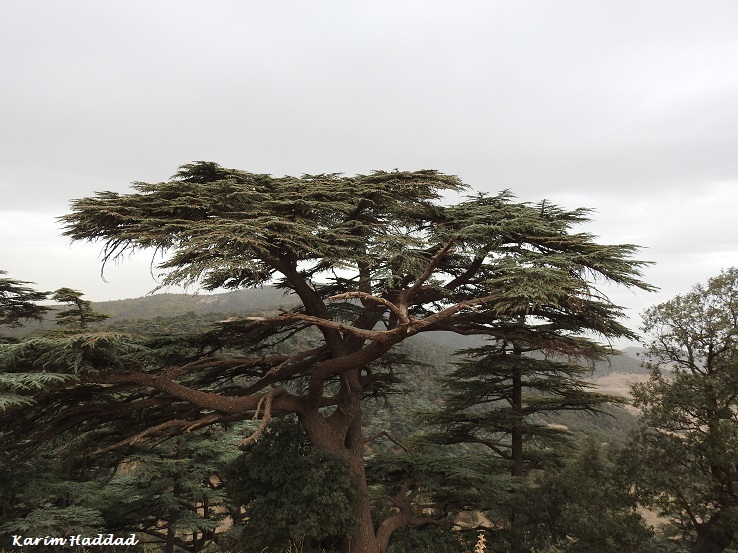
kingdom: Plantae
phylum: Tracheophyta
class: Pinopsida
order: Pinales
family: Pinaceae
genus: Cedrus
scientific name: Cedrus atlantica
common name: Atlas cedar
